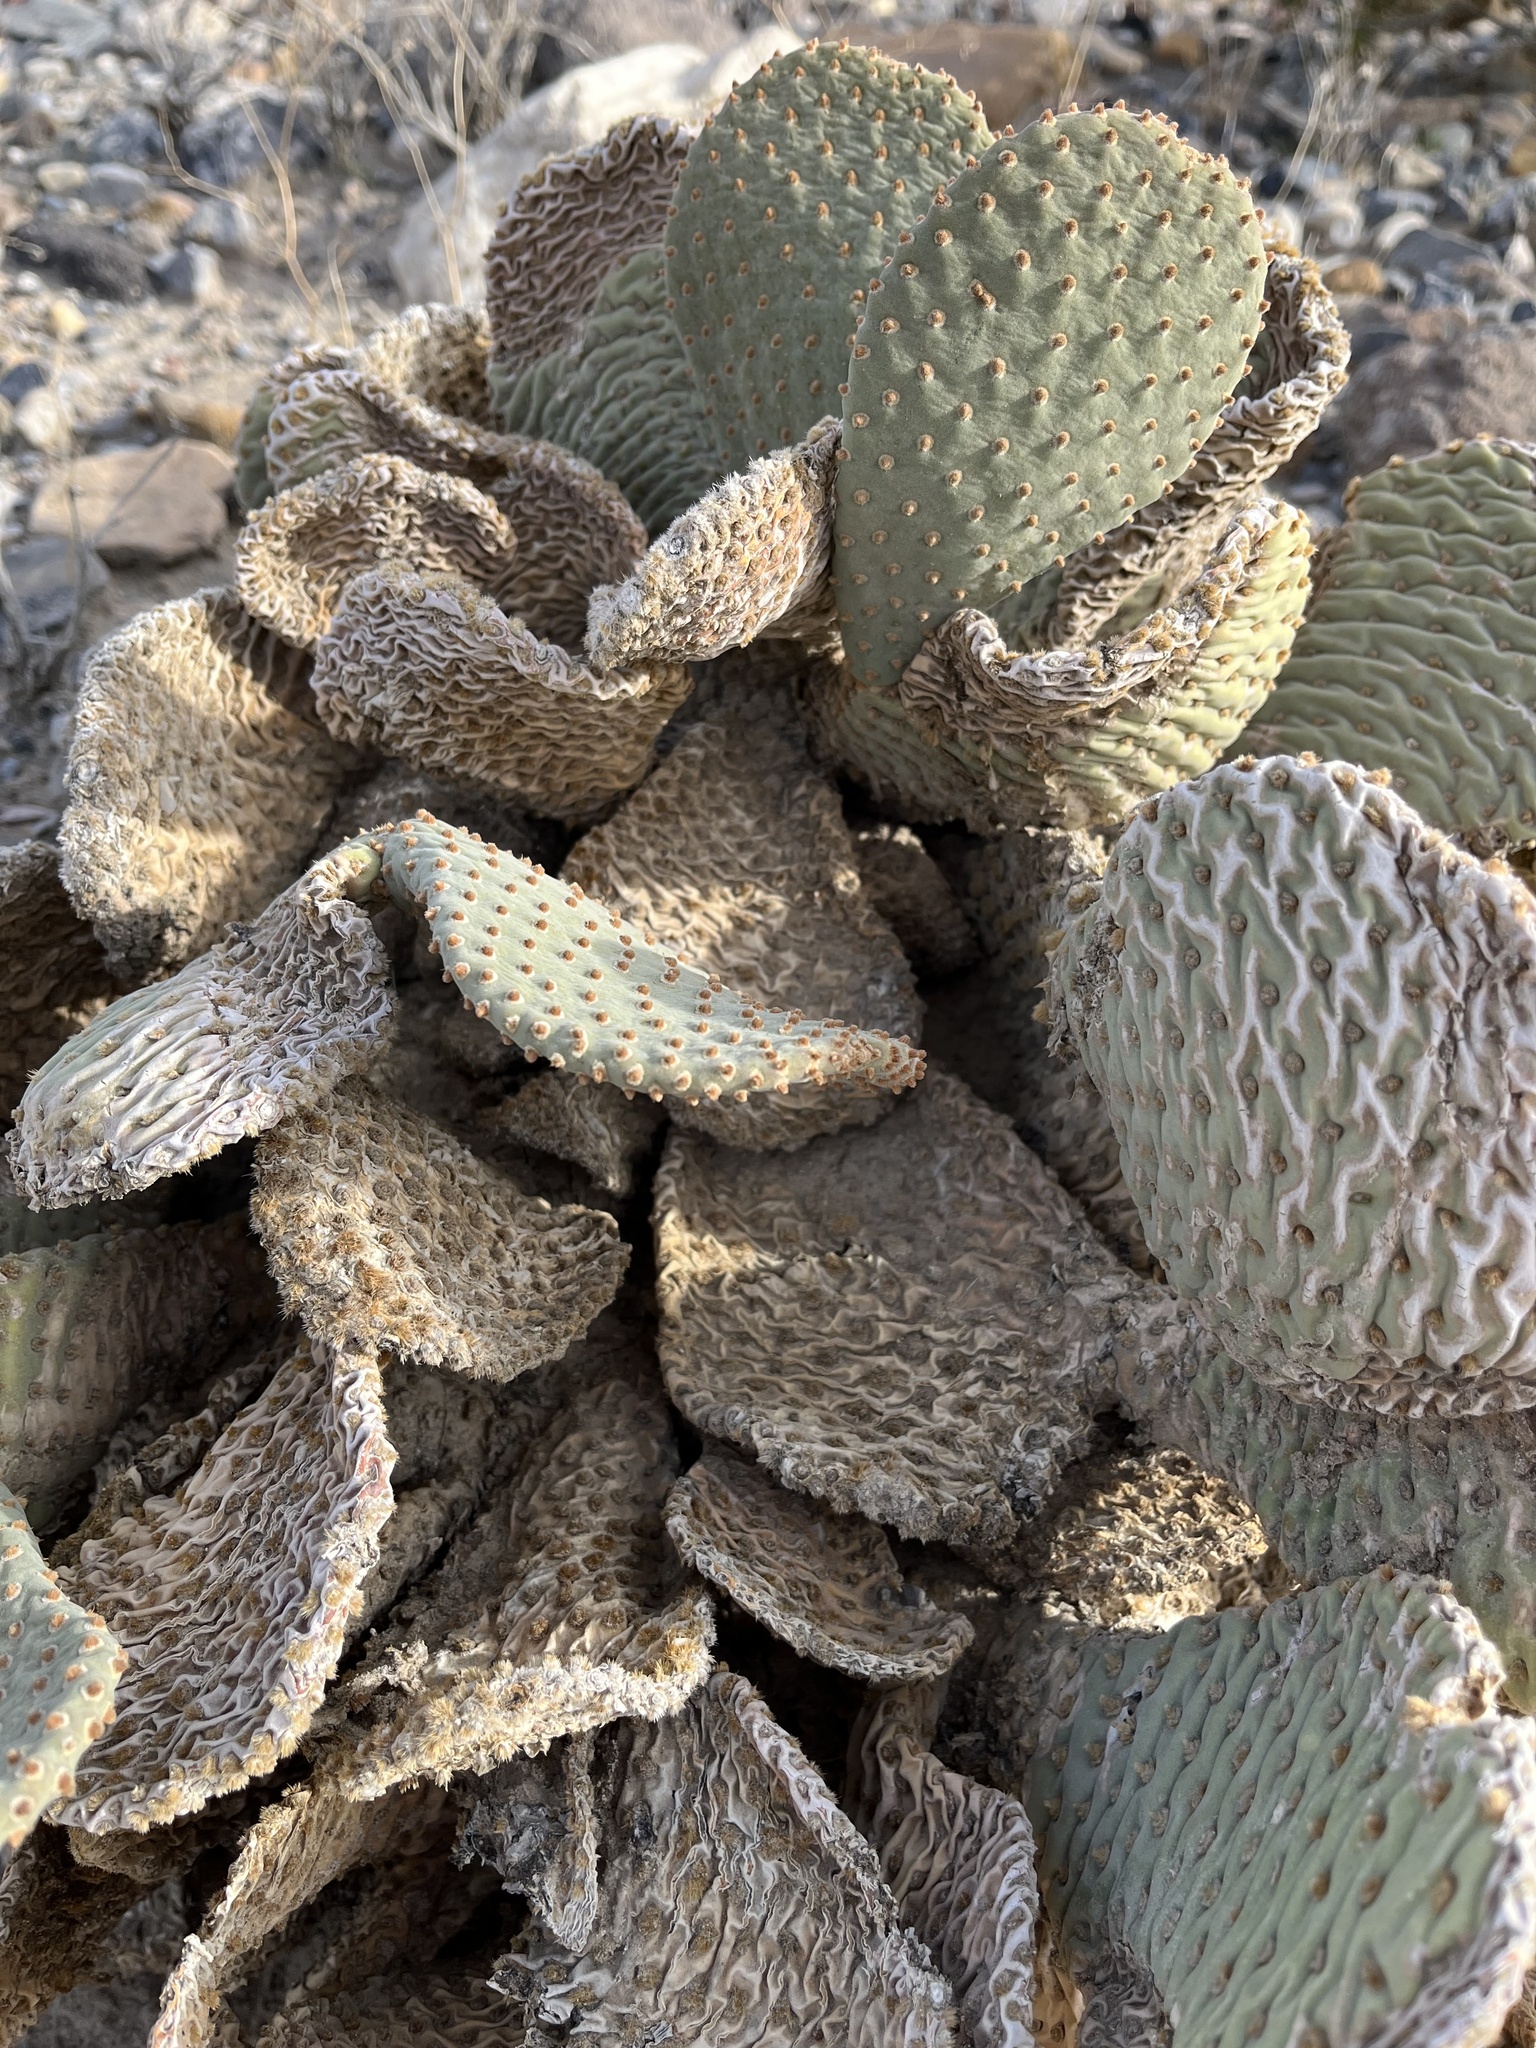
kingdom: Plantae
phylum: Tracheophyta
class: Magnoliopsida
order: Caryophyllales
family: Cactaceae
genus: Opuntia
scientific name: Opuntia basilaris
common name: Beavertail prickly-pear
